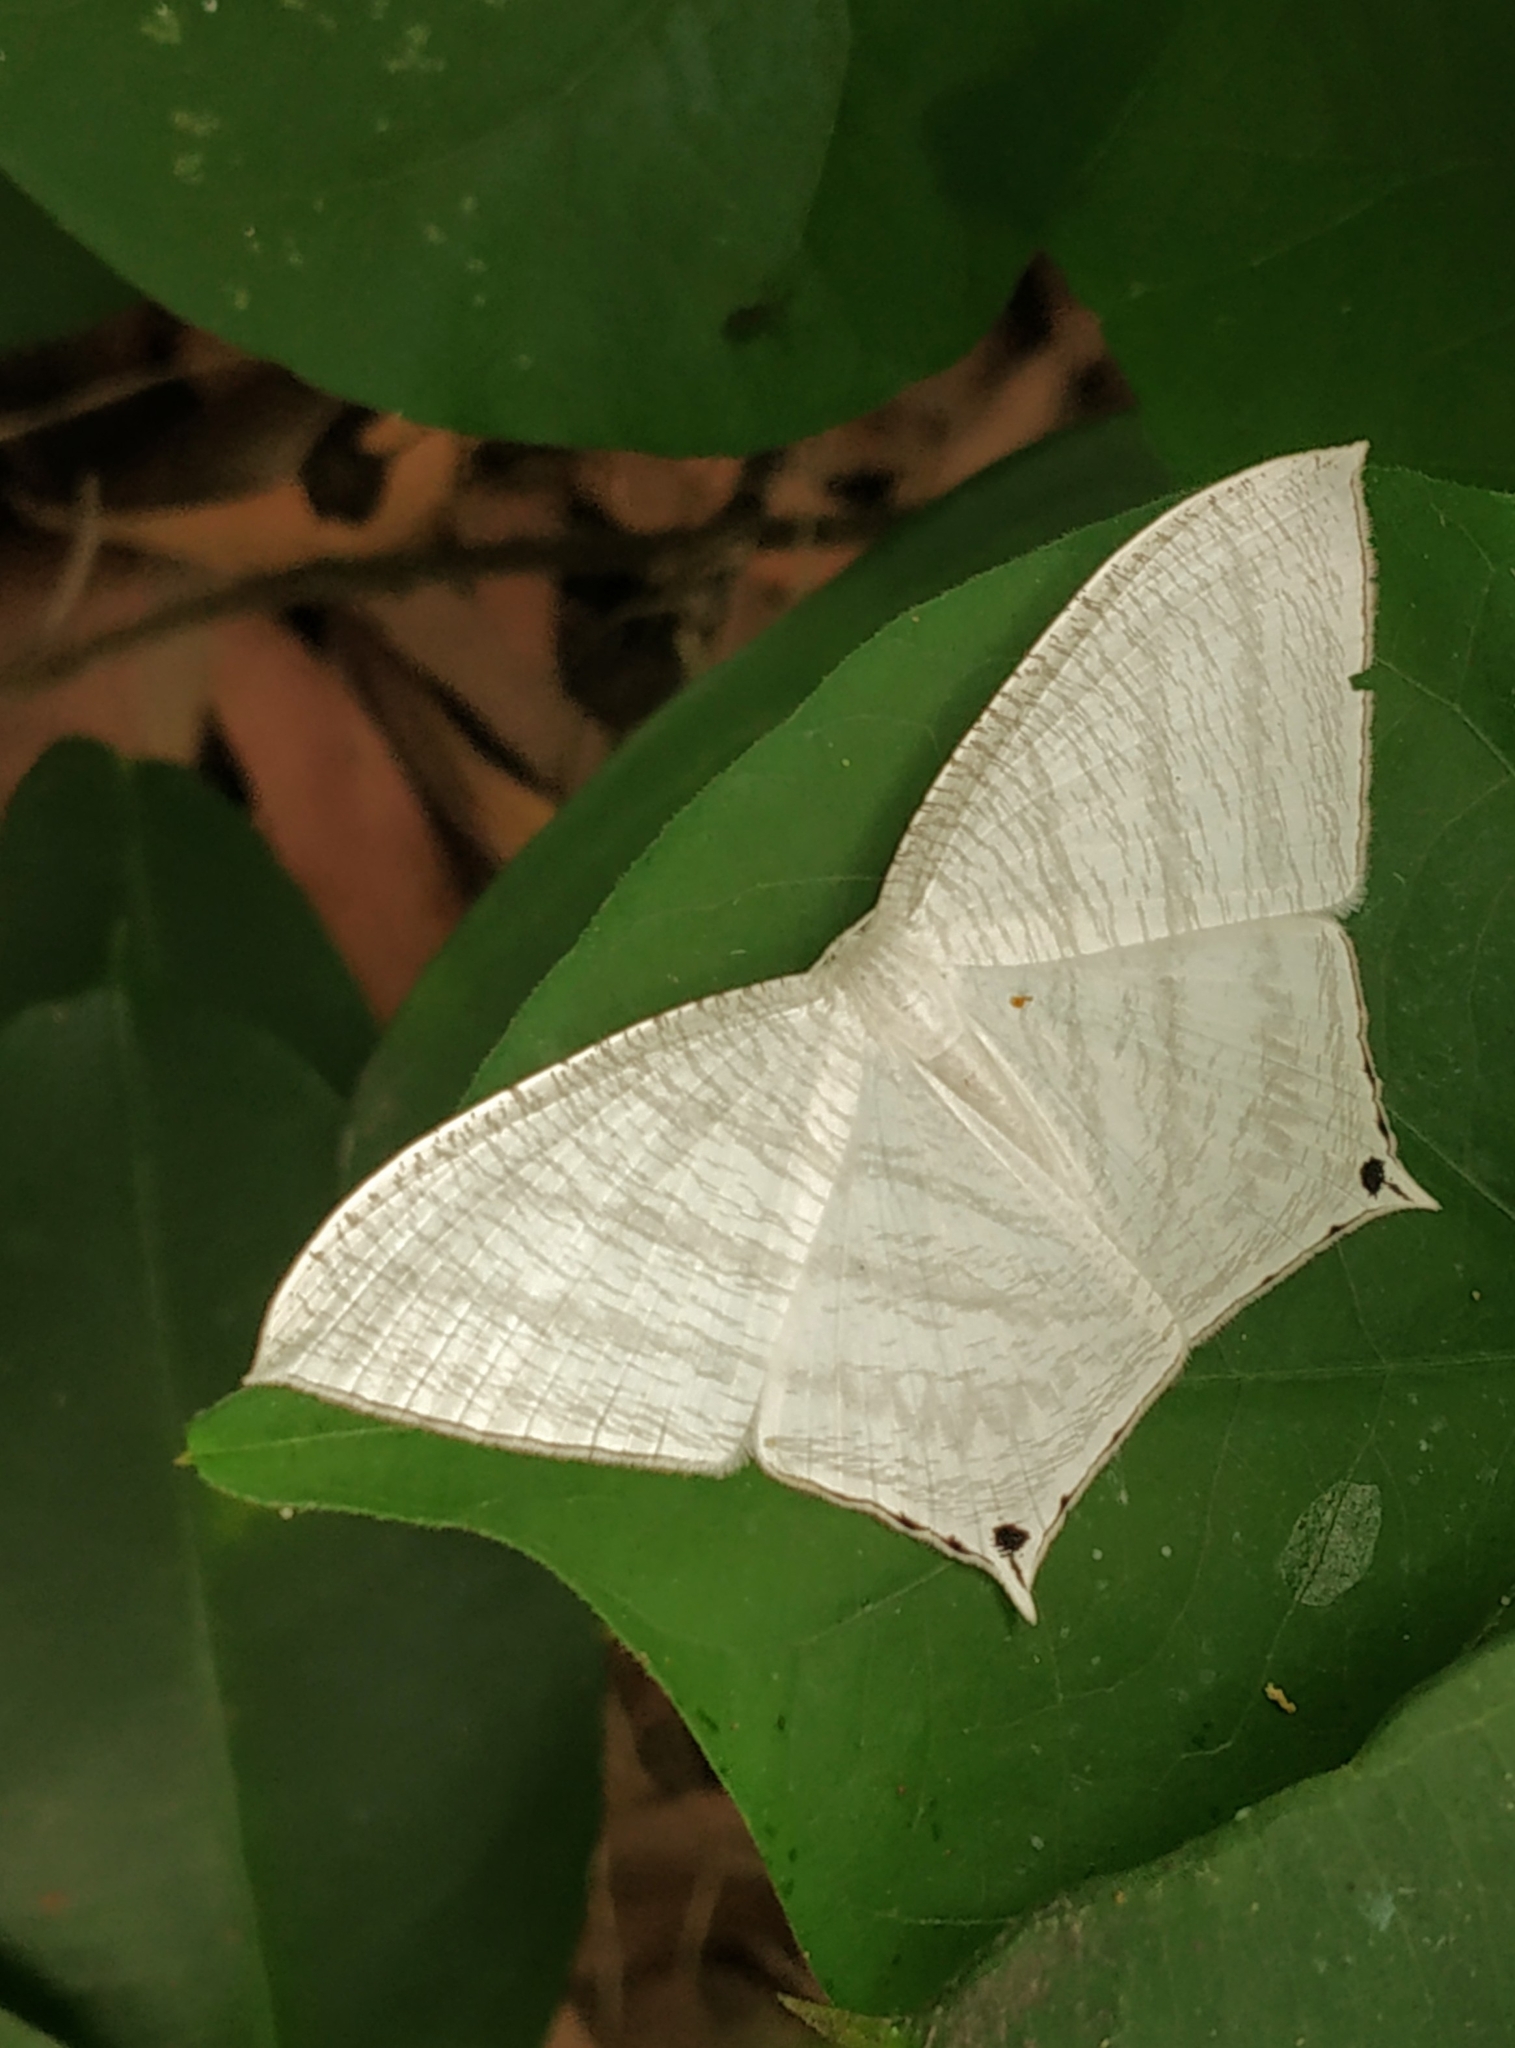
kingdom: Animalia
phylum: Arthropoda
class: Insecta
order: Lepidoptera
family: Uraniidae
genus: Micronia
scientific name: Micronia aculeata
